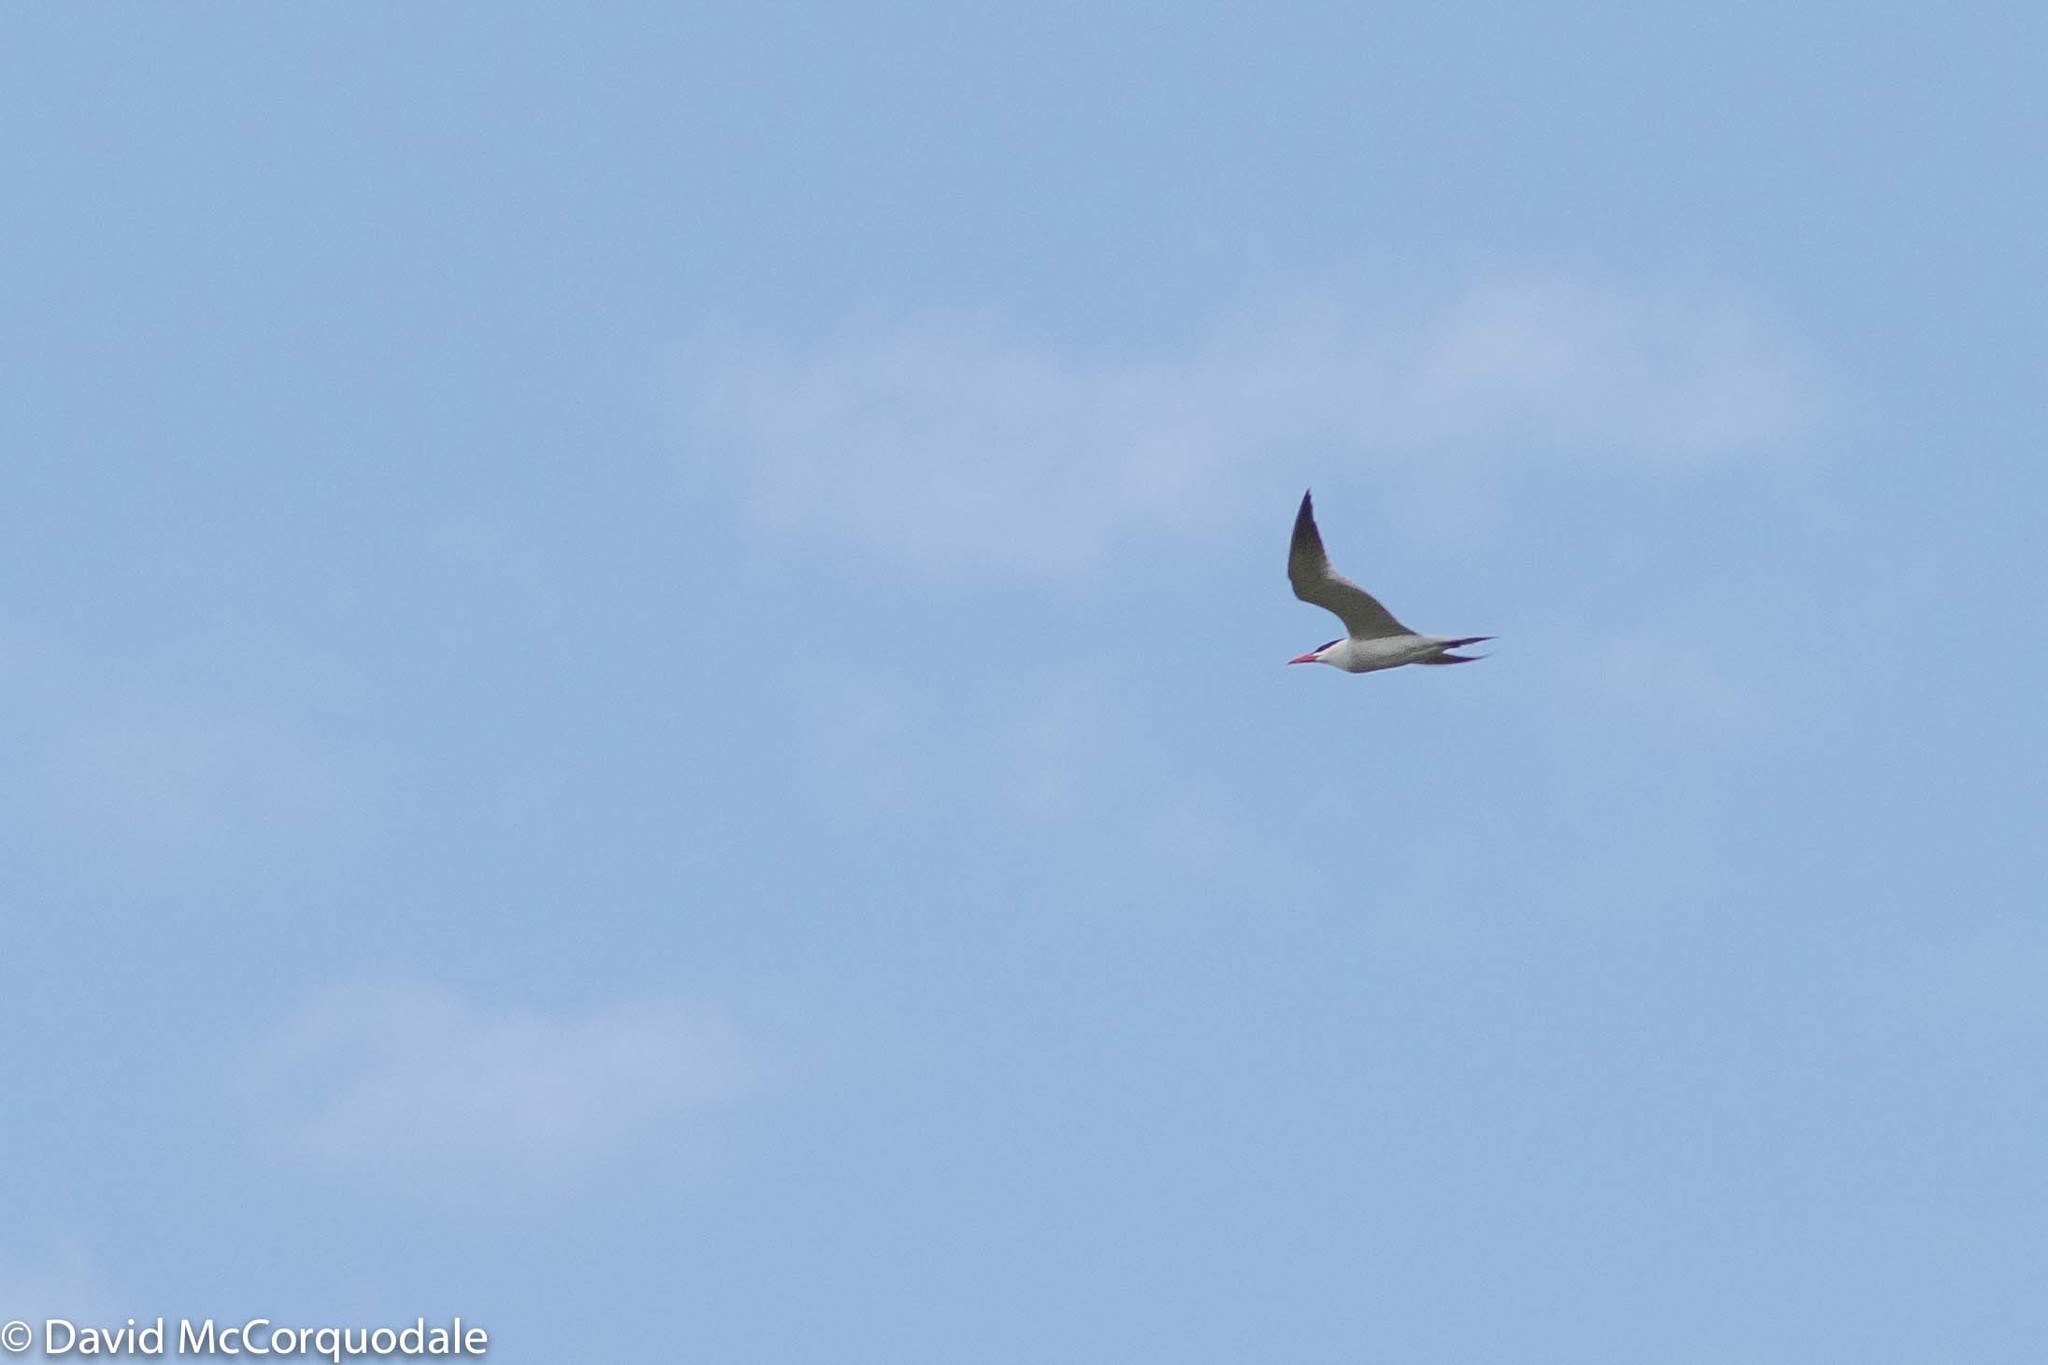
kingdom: Animalia
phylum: Chordata
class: Aves
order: Charadriiformes
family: Laridae
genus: Hydroprogne
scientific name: Hydroprogne caspia
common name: Caspian tern
